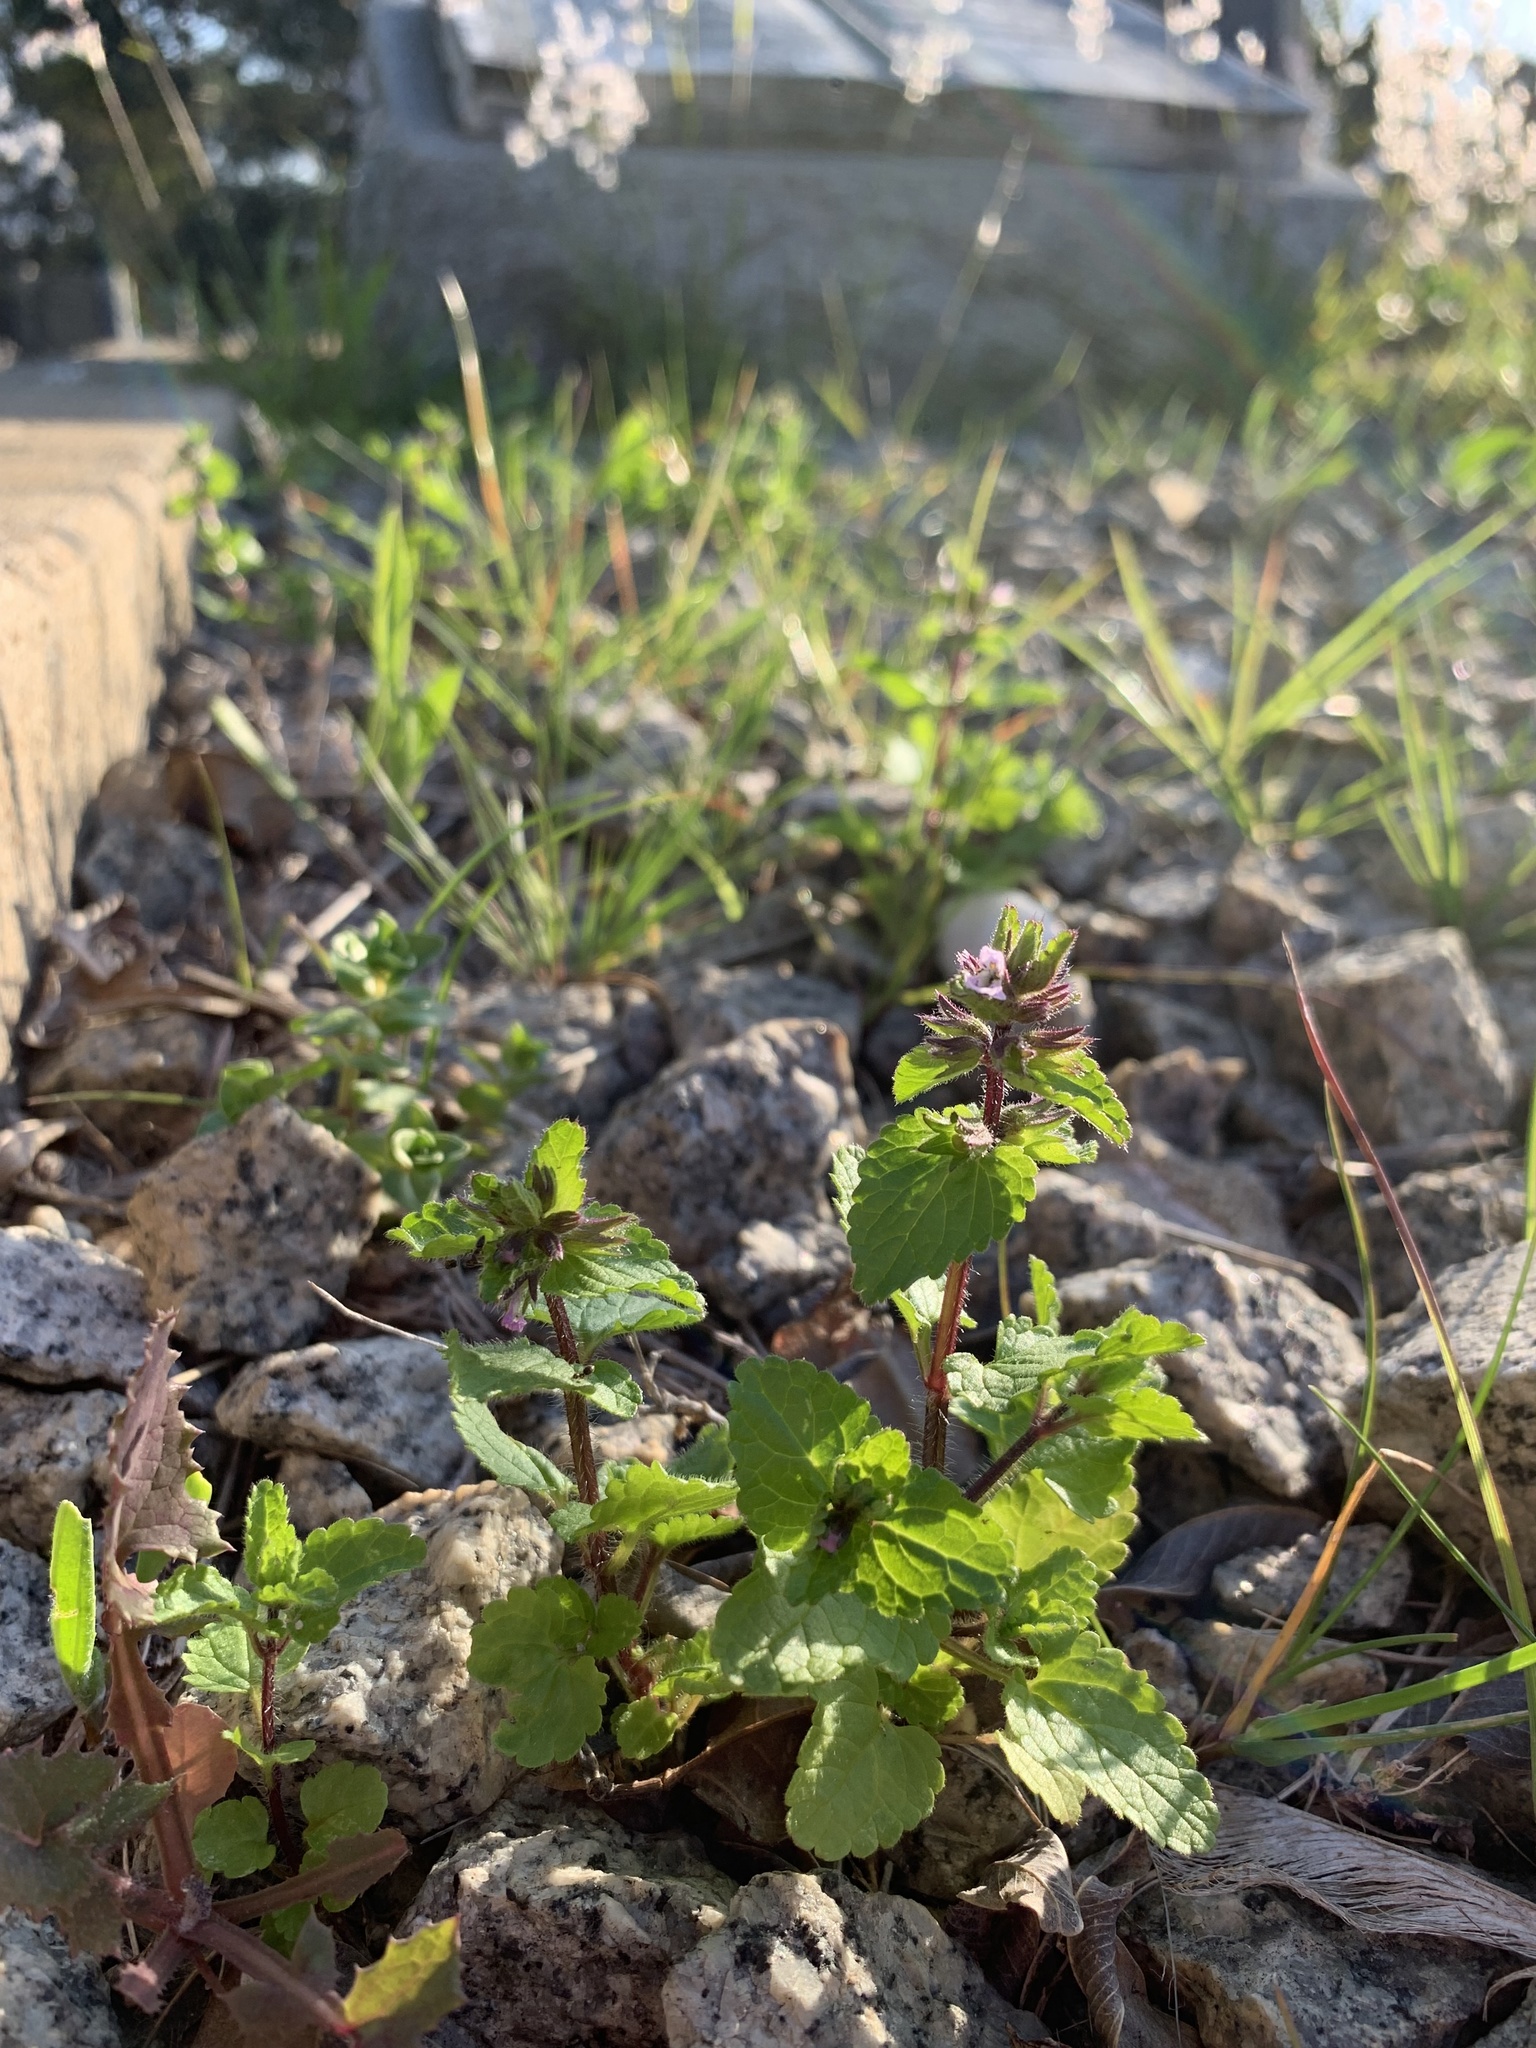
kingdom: Plantae
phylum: Tracheophyta
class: Magnoliopsida
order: Lamiales
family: Lamiaceae
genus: Stachys
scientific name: Stachys arvensis
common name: Field woundwort
